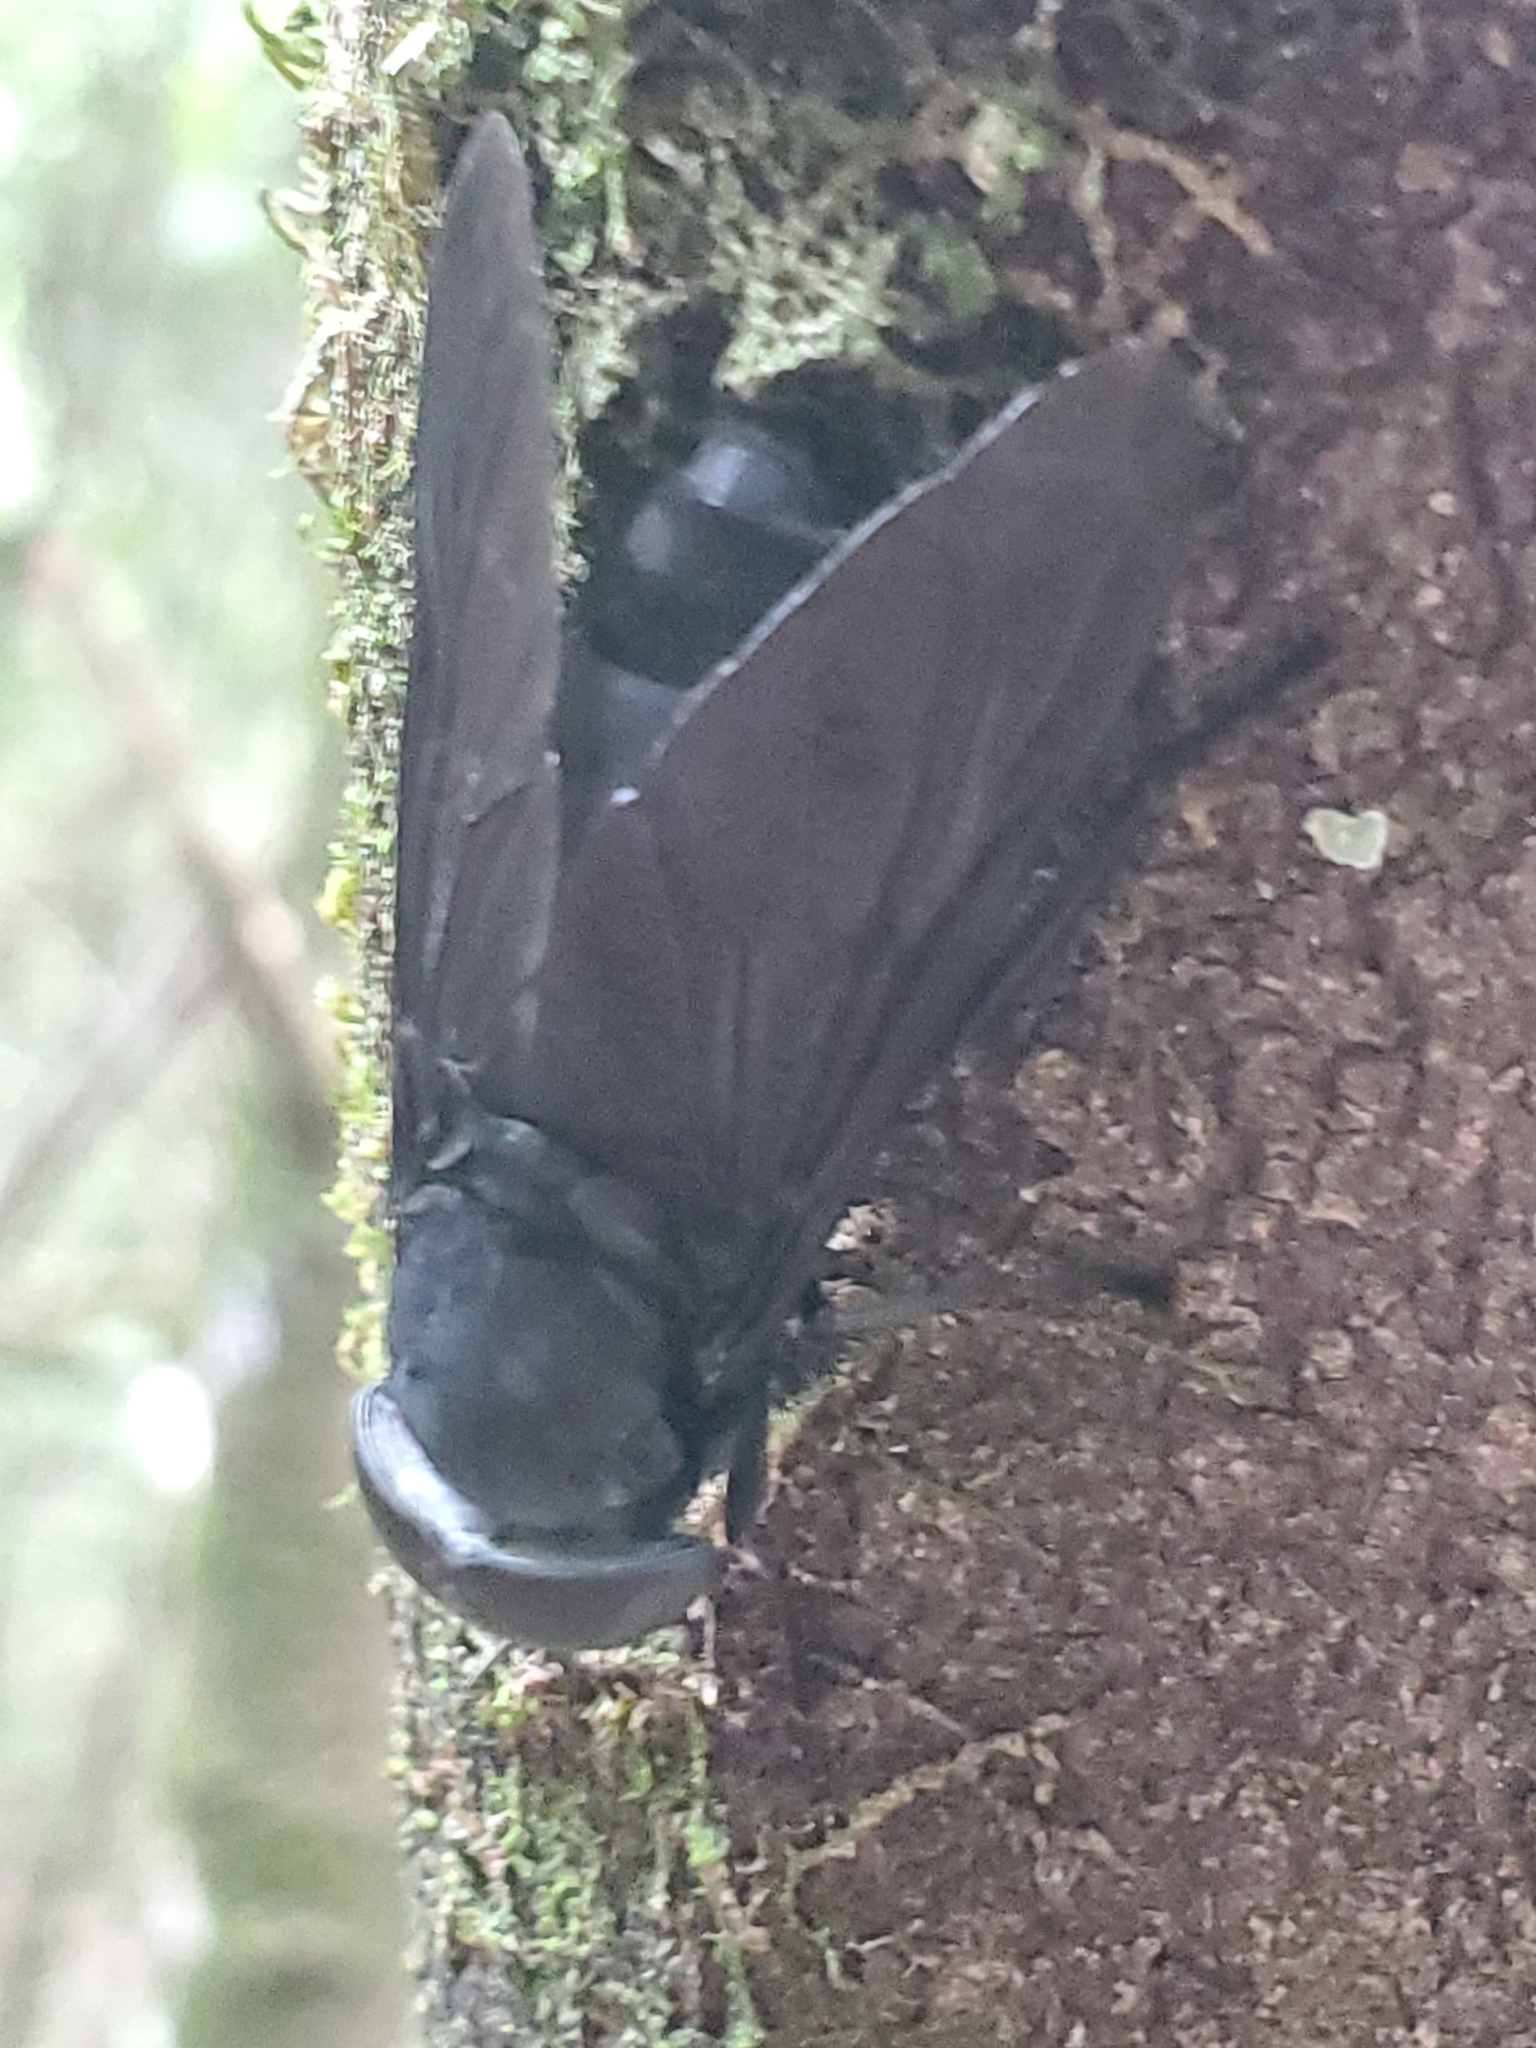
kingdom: Animalia
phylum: Arthropoda
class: Insecta
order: Diptera
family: Tabanidae
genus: Tabanus
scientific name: Tabanus atratus
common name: Black horse fly
